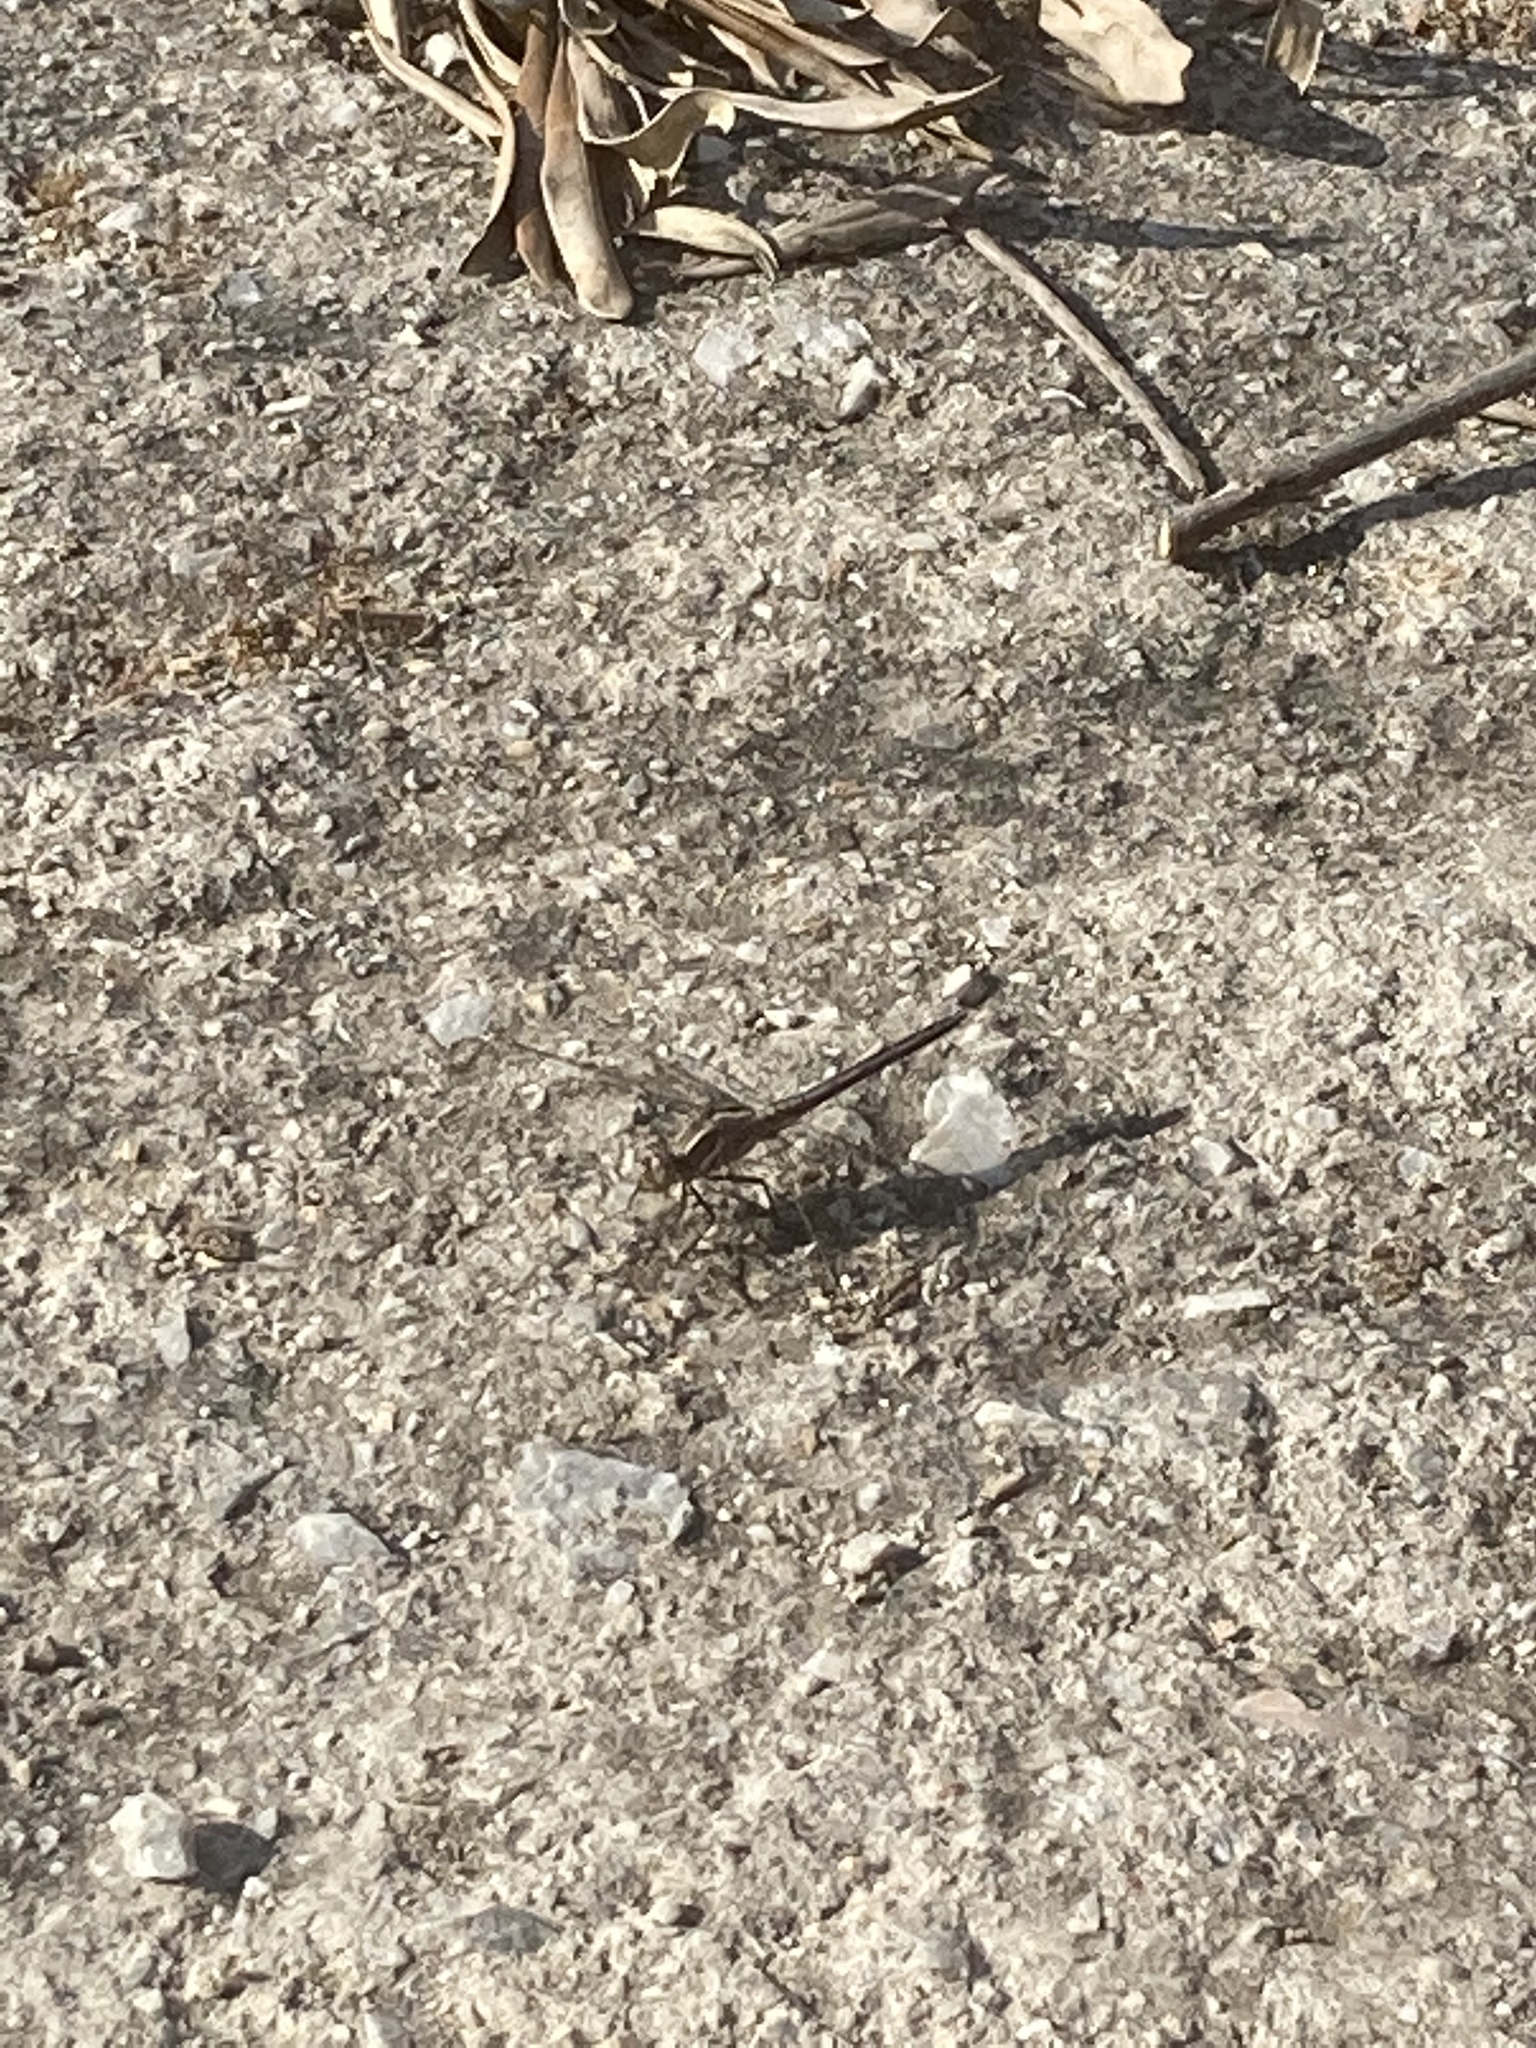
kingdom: Animalia
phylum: Arthropoda
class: Insecta
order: Odonata
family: Libellulidae
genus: Orthetrum
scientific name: Orthetrum taeniolatum
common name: Small skimmer
